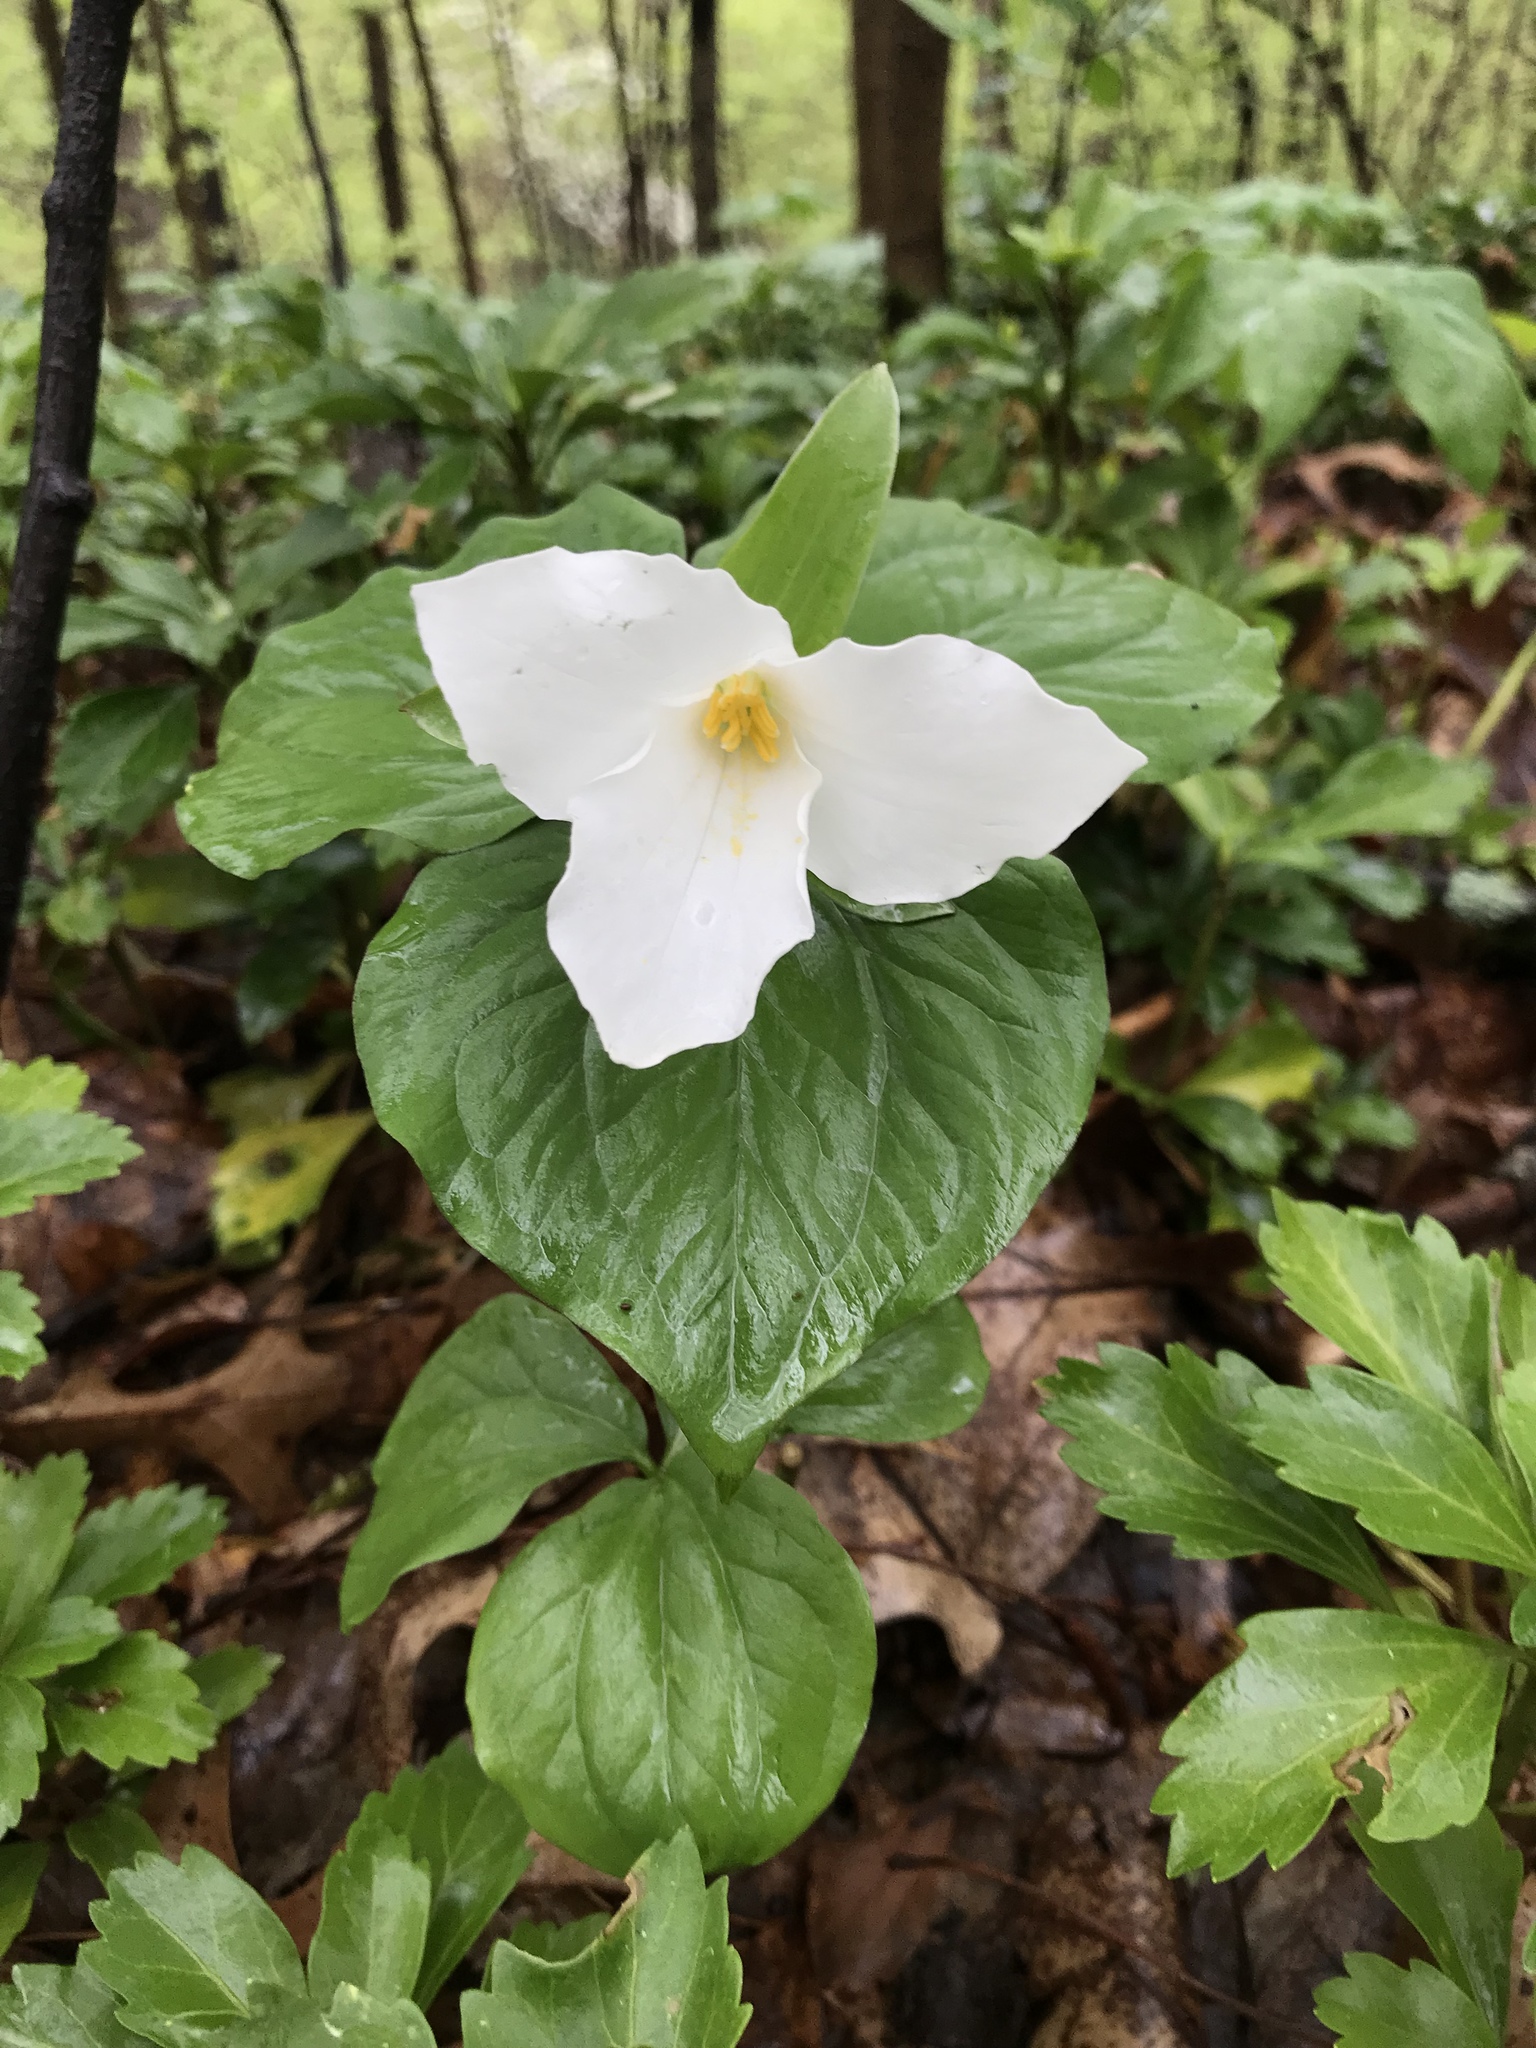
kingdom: Plantae
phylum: Tracheophyta
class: Liliopsida
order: Liliales
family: Melanthiaceae
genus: Trillium
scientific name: Trillium grandiflorum
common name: Great white trillium
